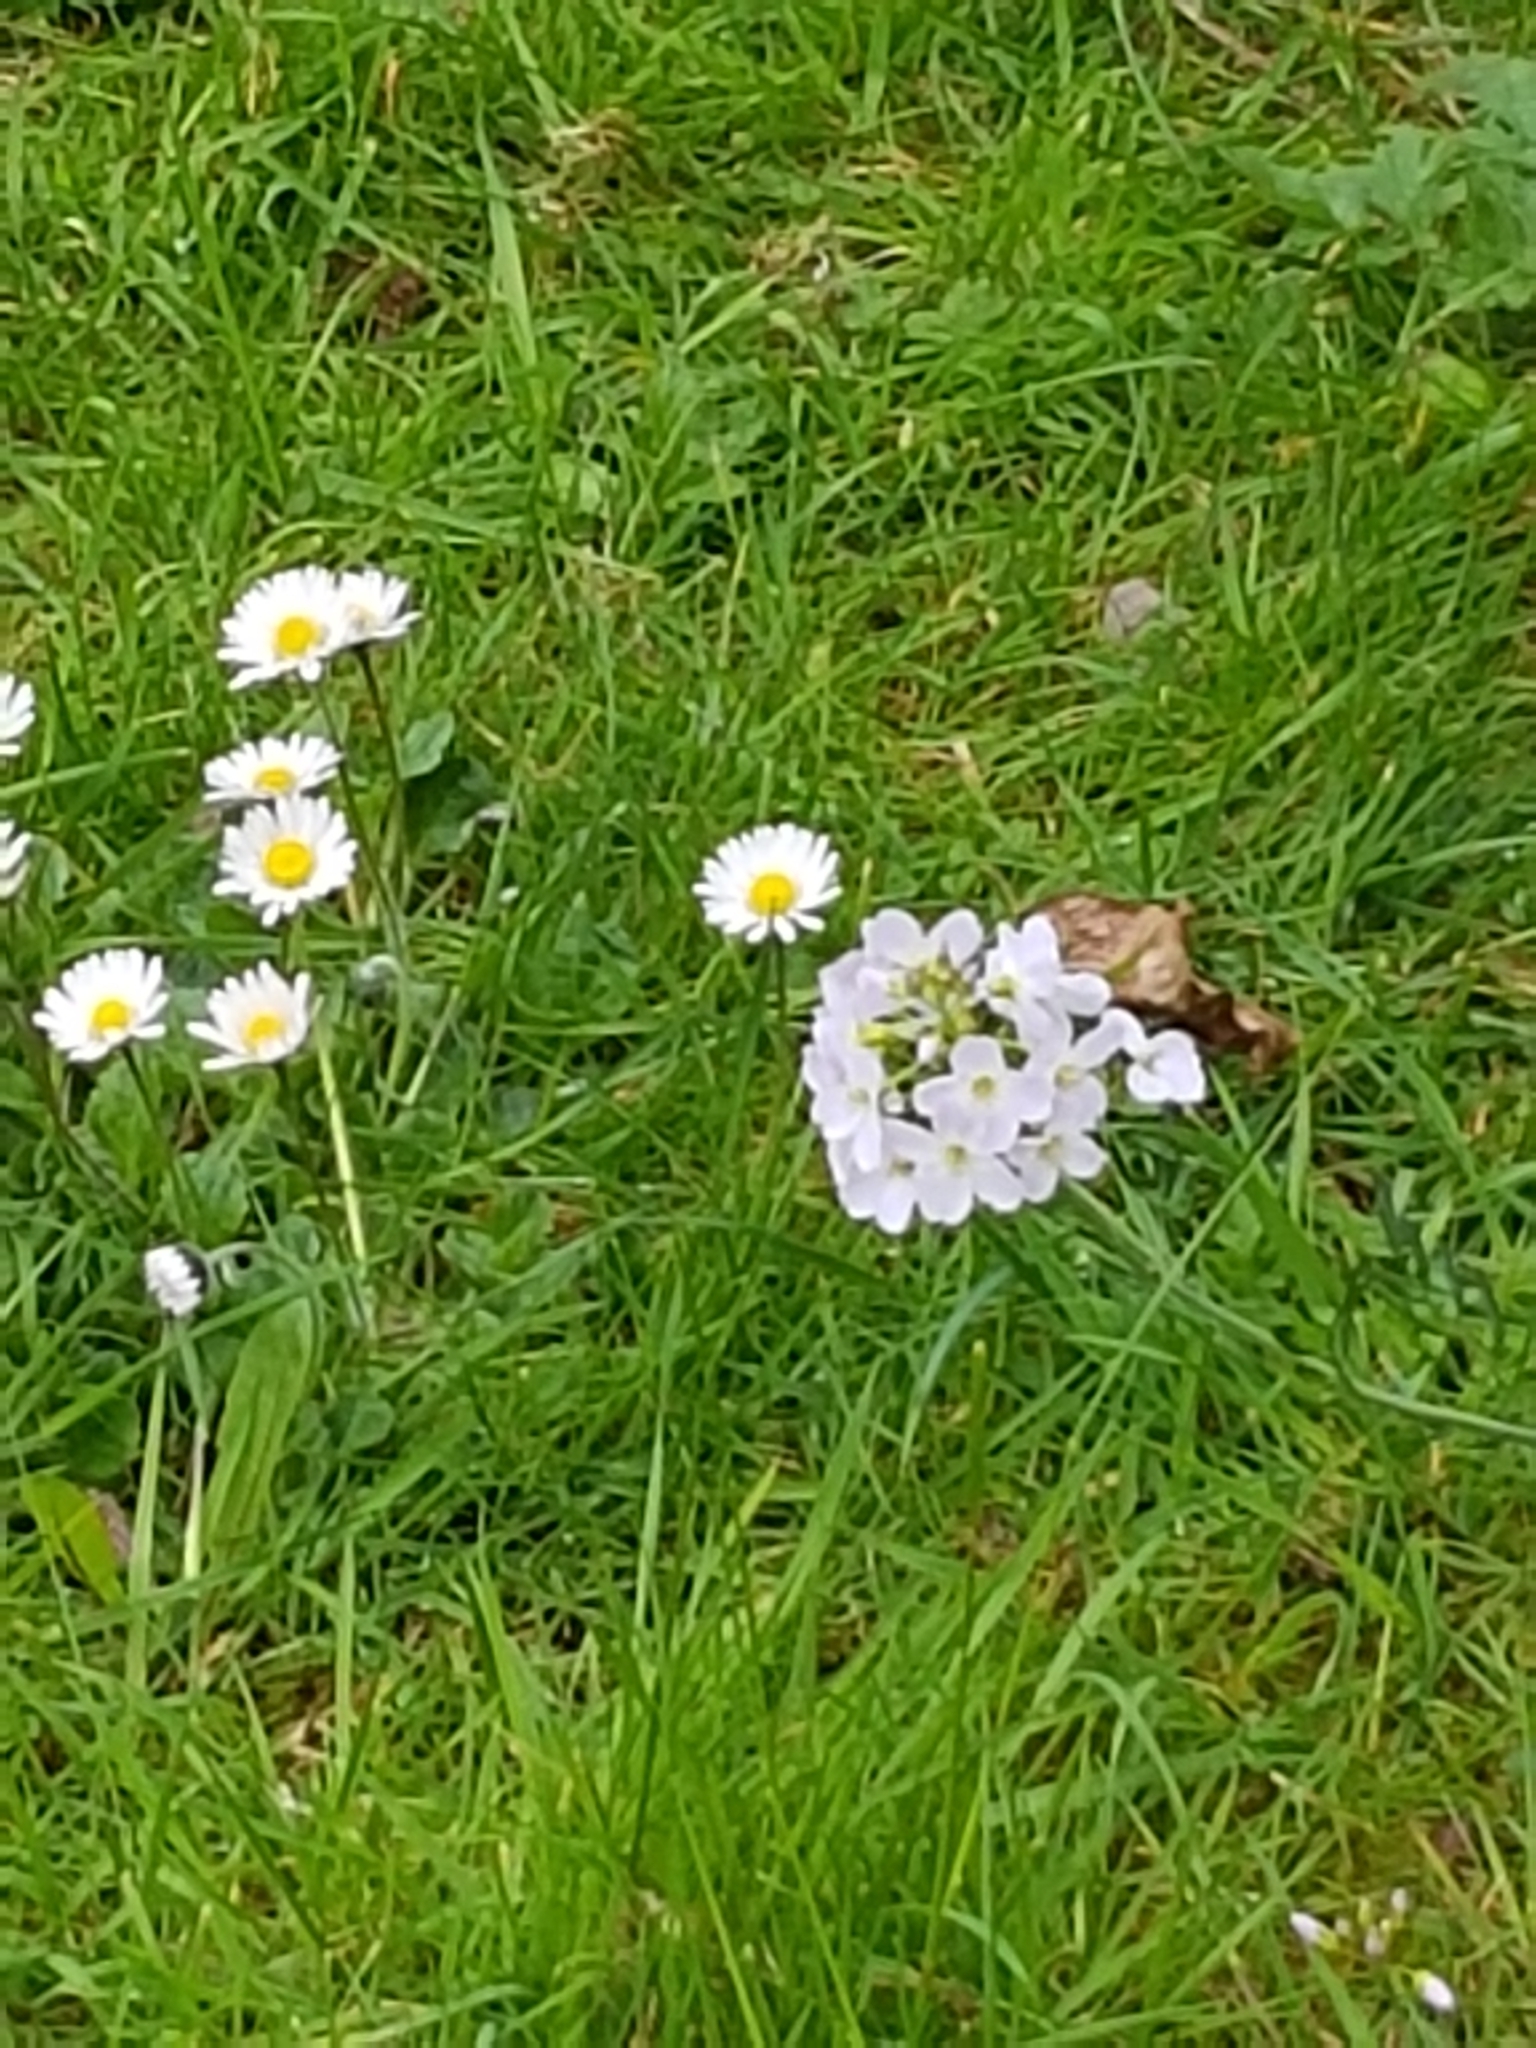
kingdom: Plantae
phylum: Tracheophyta
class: Magnoliopsida
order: Brassicales
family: Brassicaceae
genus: Cardamine
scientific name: Cardamine pratensis
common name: Cuckoo flower
